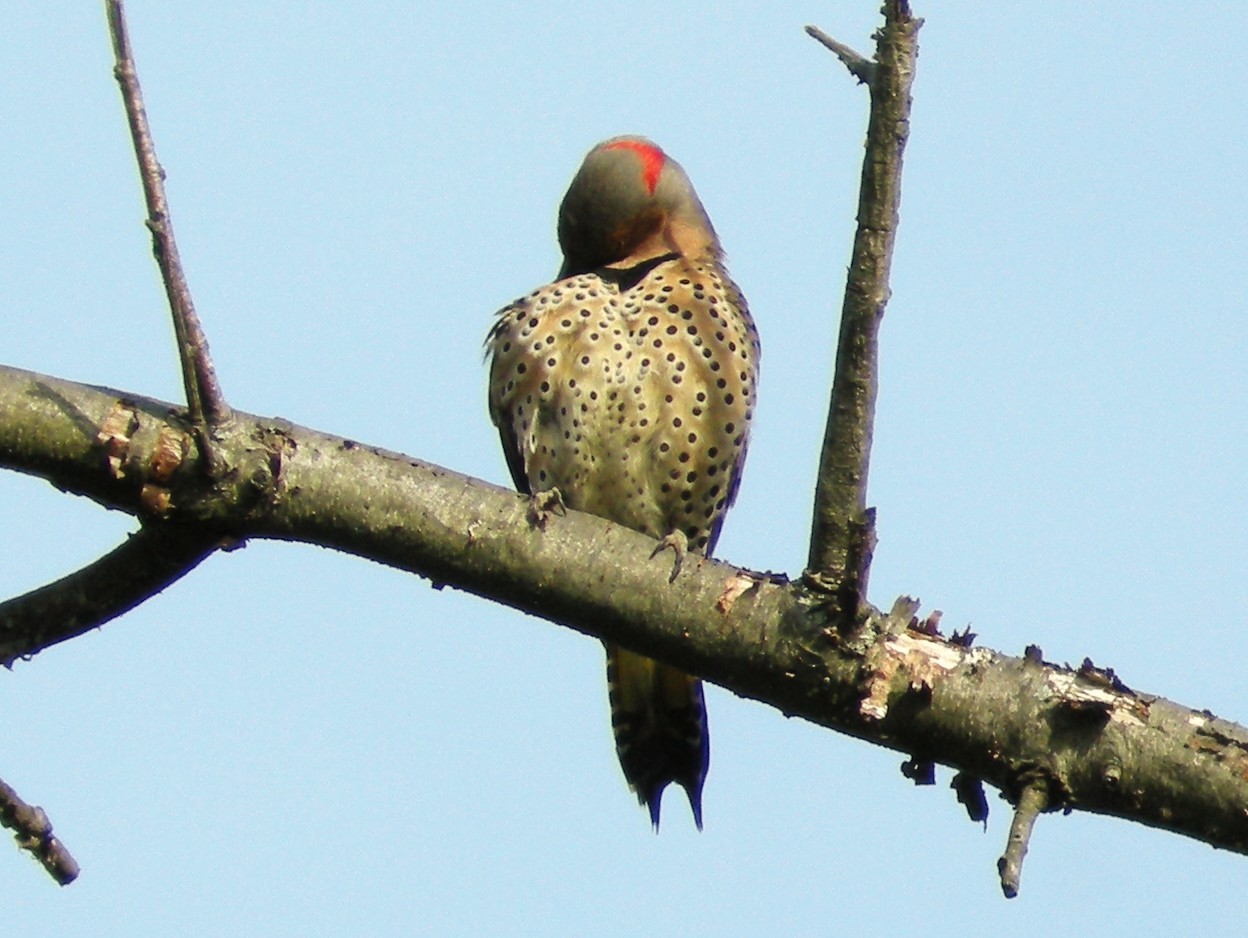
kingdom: Animalia
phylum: Chordata
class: Aves
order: Piciformes
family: Picidae
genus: Colaptes
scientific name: Colaptes auratus
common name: Northern flicker
